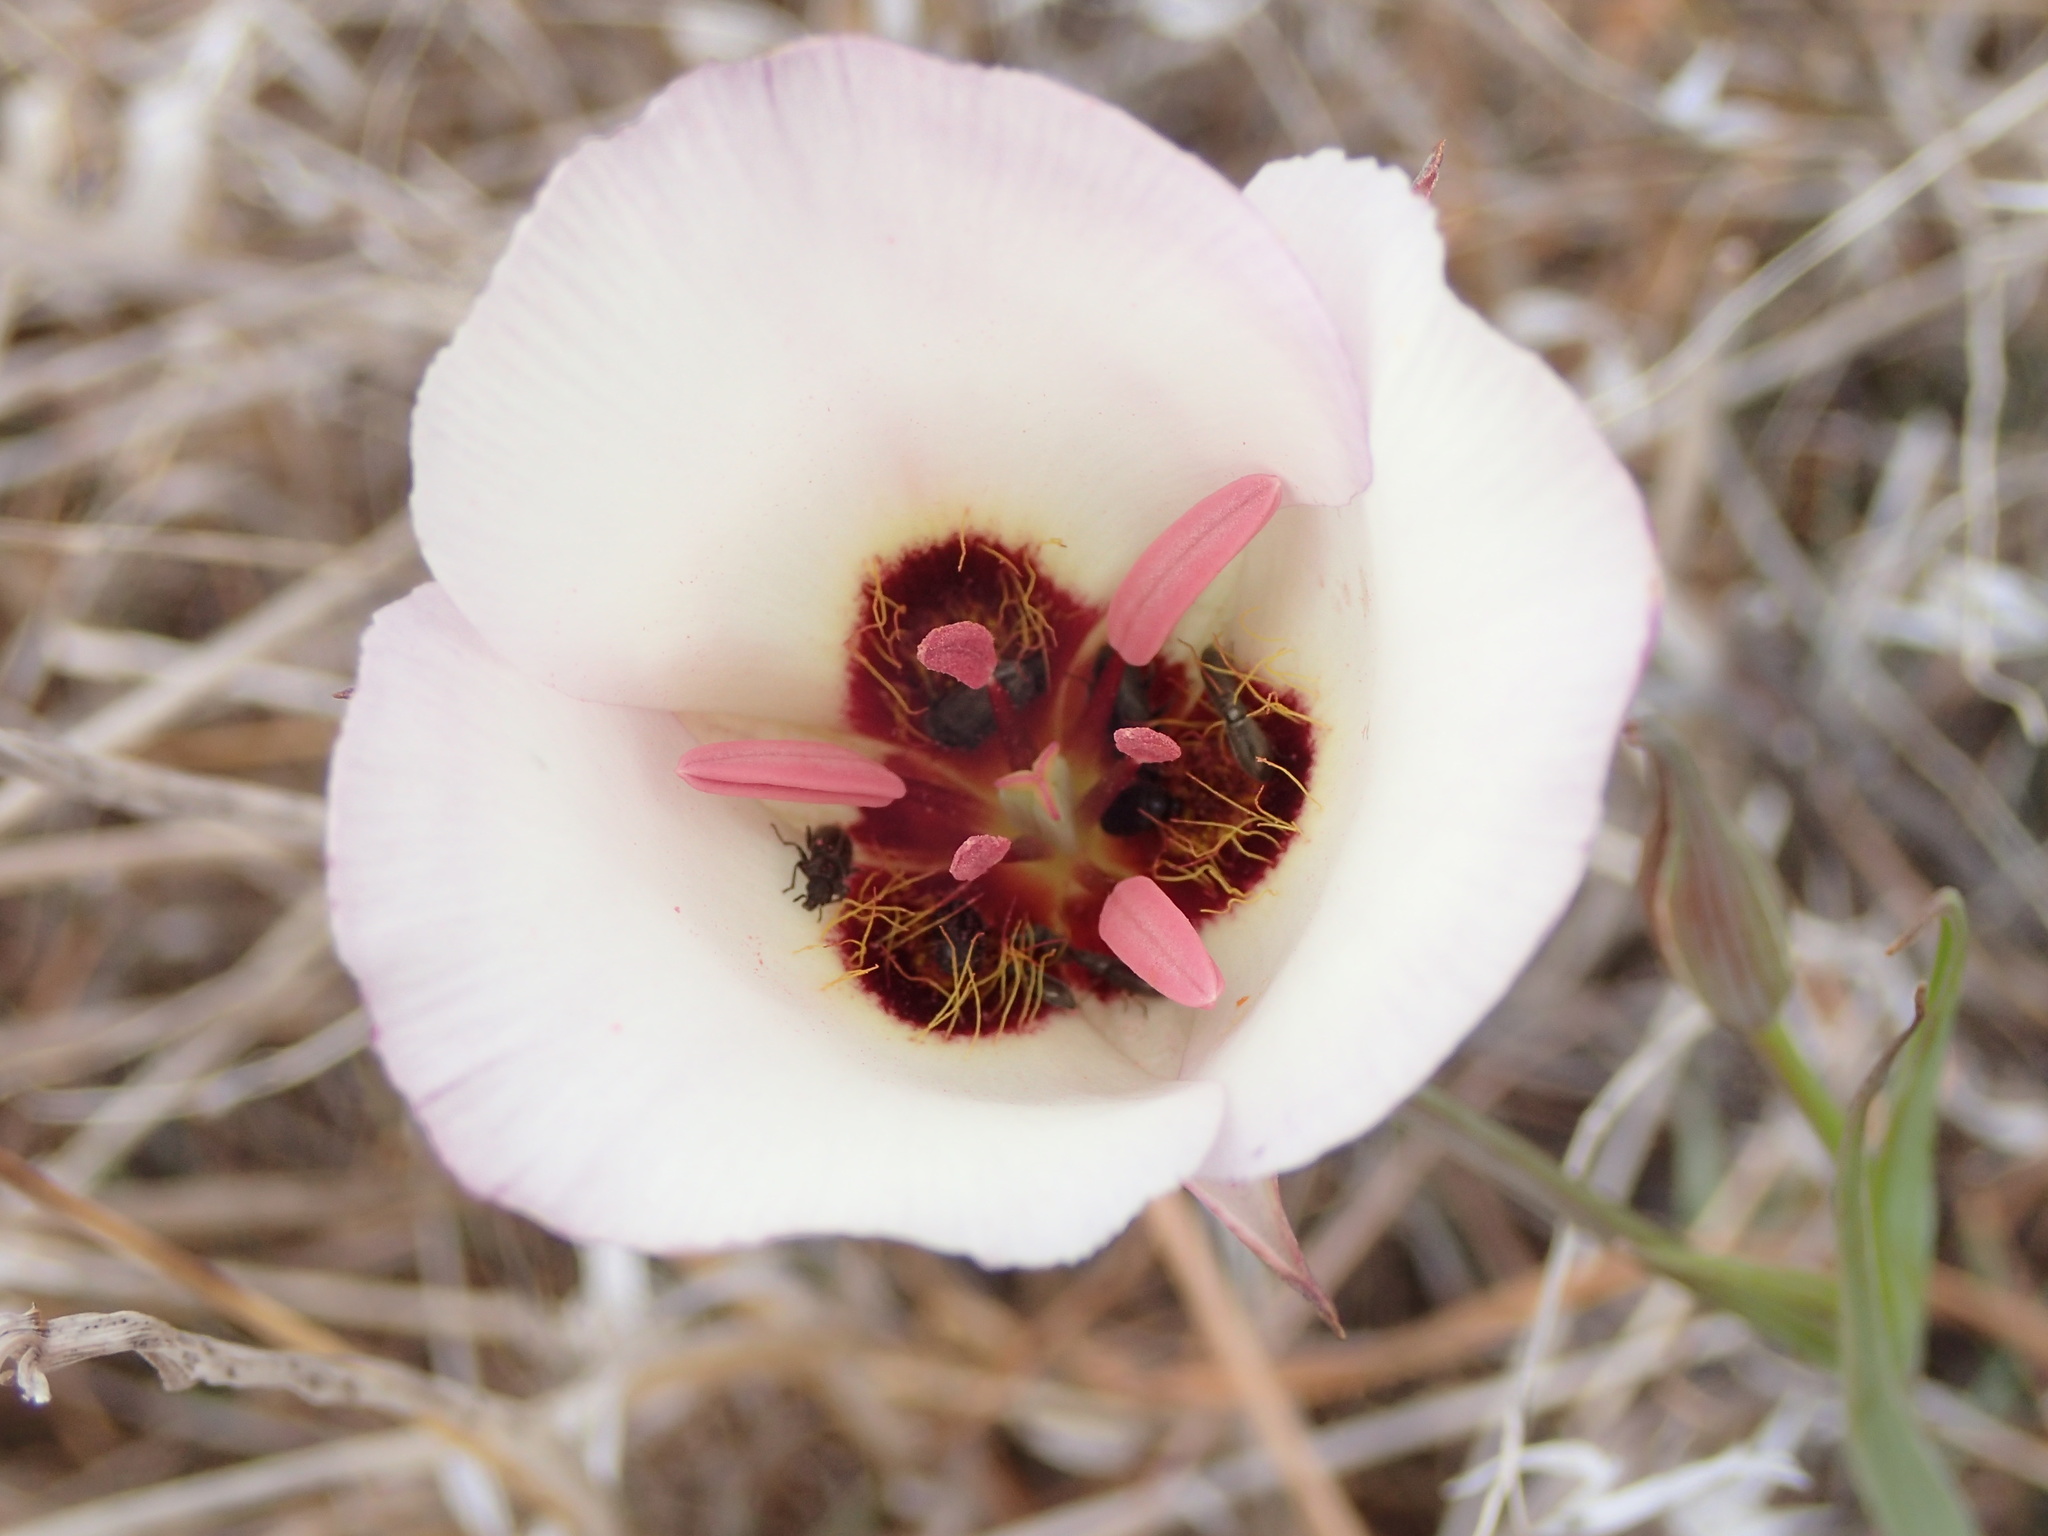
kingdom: Plantae
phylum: Tracheophyta
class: Liliopsida
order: Liliales
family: Liliaceae
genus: Calochortus
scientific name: Calochortus catalinae
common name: Catalina mariposa-lily
